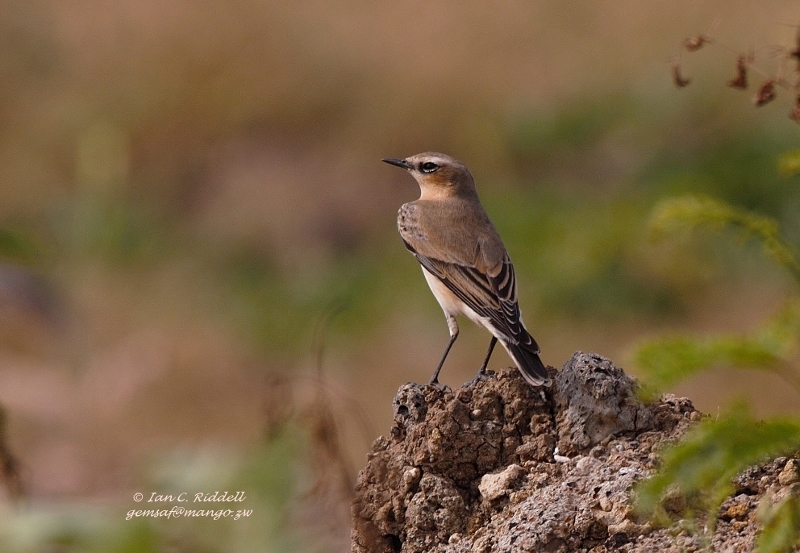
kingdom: Animalia
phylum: Chordata
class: Aves
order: Passeriformes
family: Muscicapidae
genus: Oenanthe
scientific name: Oenanthe oenanthe
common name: Northern wheatear
